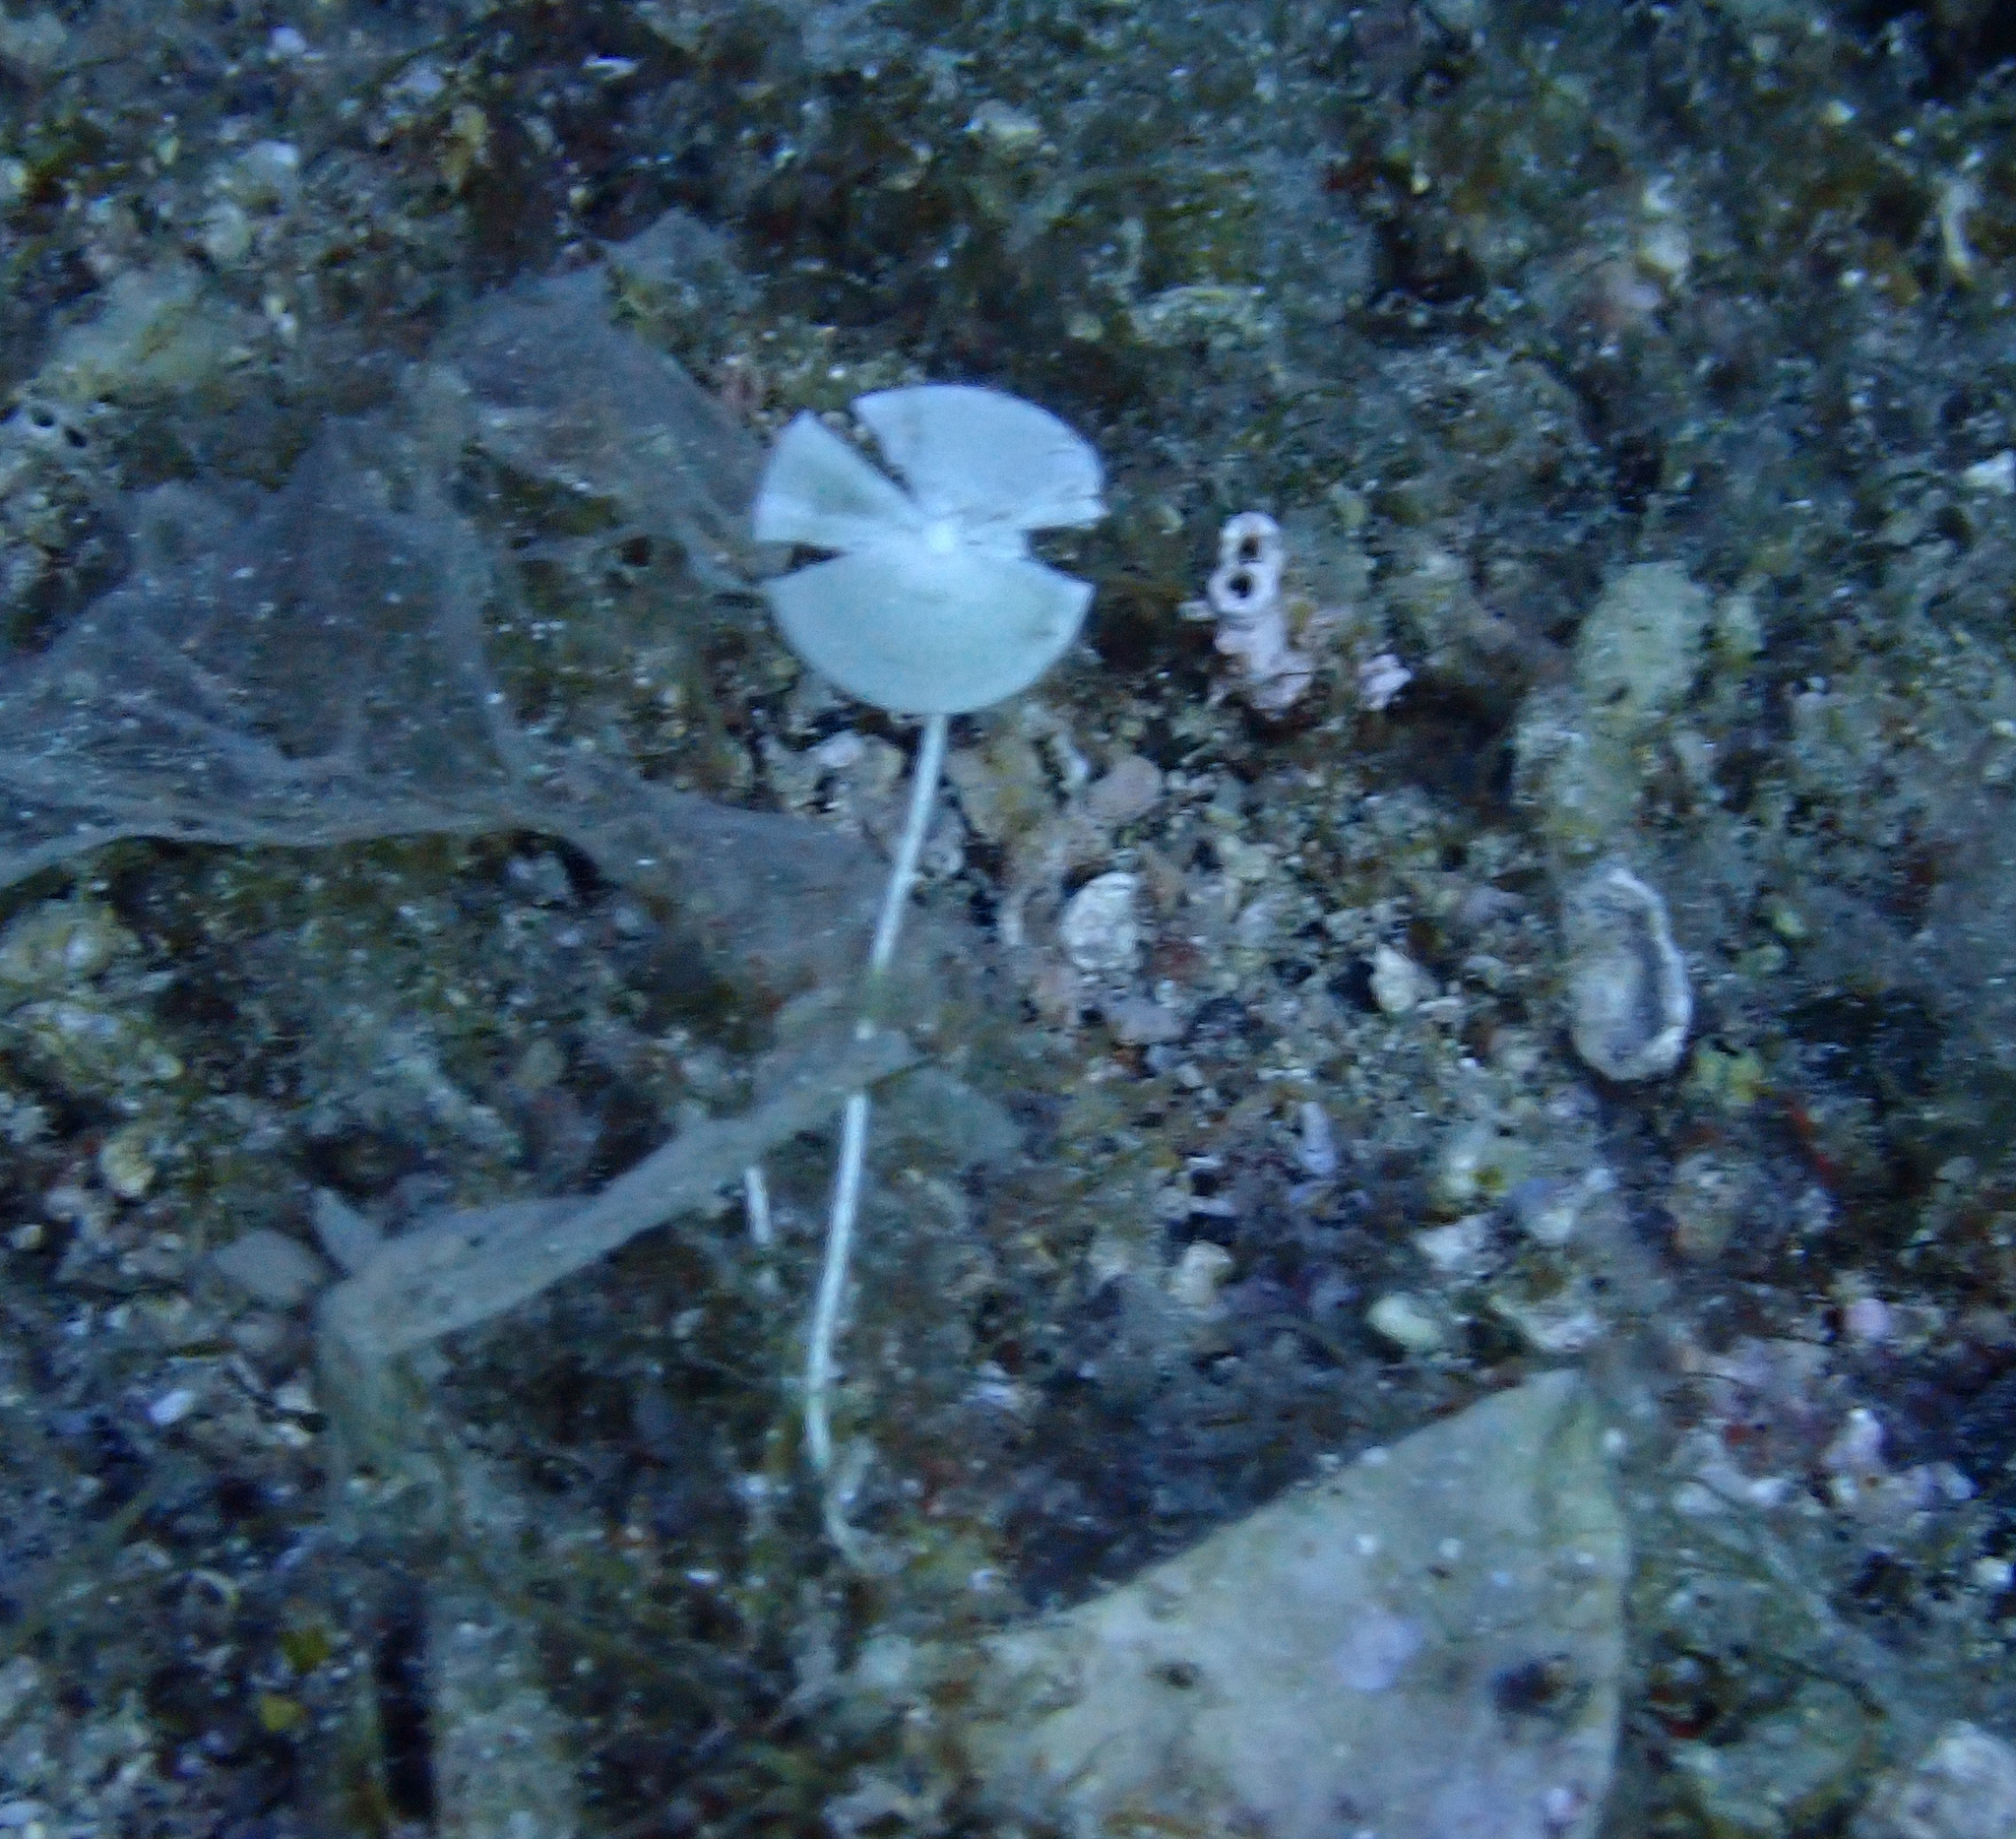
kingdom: Plantae
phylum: Chlorophyta
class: Ulvophyceae
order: Dasycladales
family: Polyphysaceae
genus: Acetabularia
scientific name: Acetabularia acetabulum
